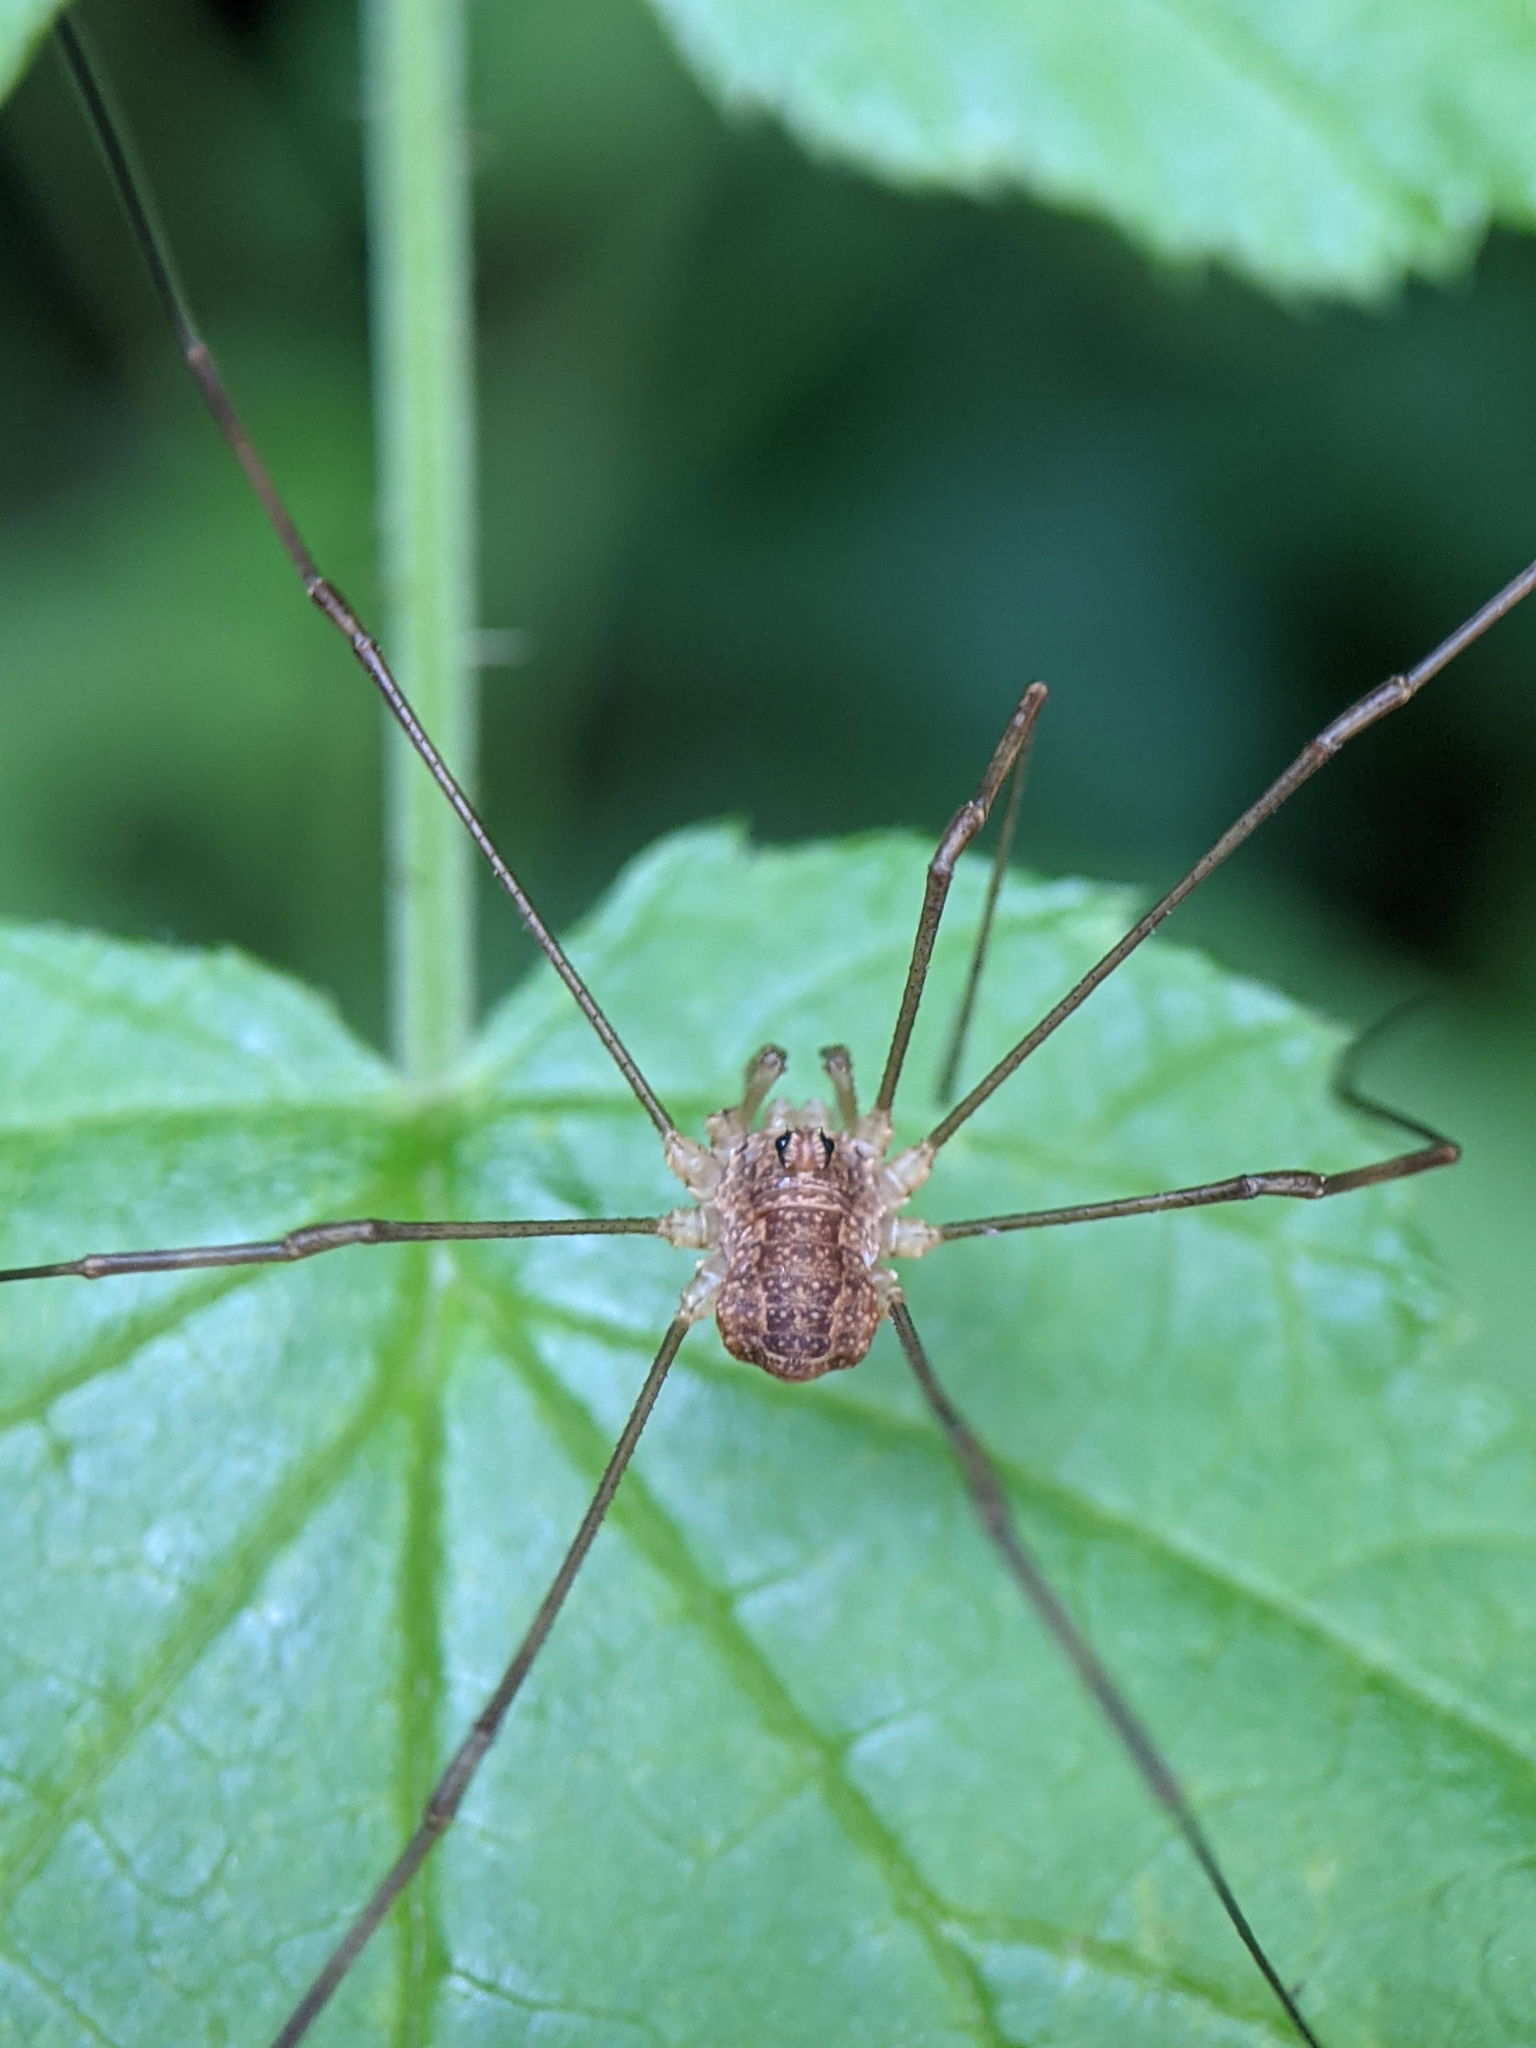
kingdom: Animalia
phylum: Arthropoda
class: Arachnida
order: Opiliones
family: Phalangiidae
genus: Rilaena
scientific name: Rilaena triangularis
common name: Spring harvestman
